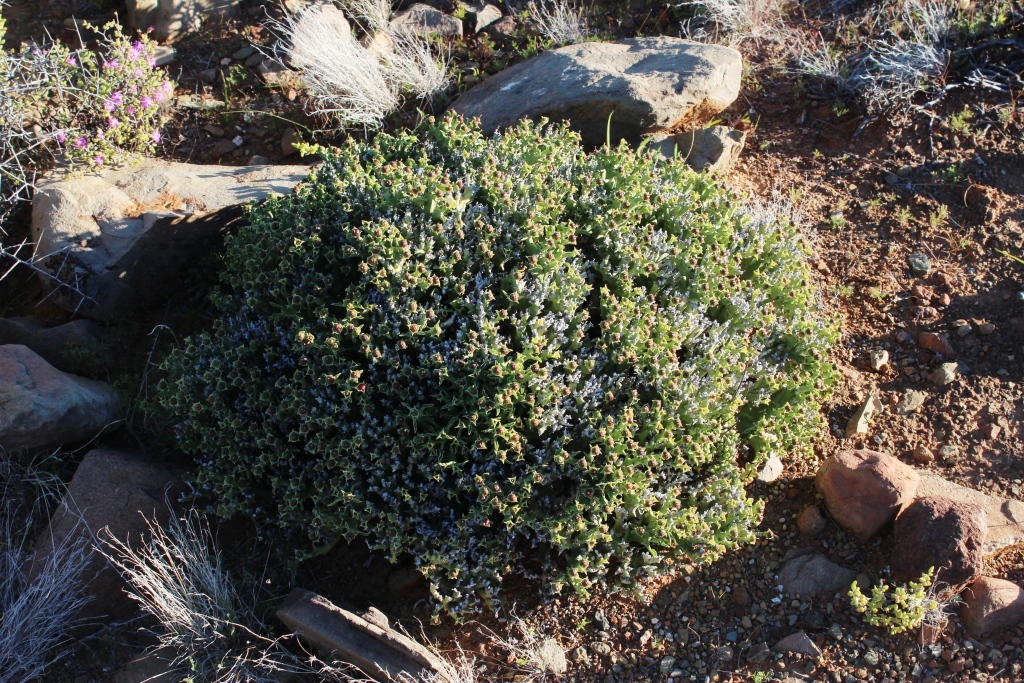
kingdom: Plantae
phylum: Tracheophyta
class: Magnoliopsida
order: Malpighiales
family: Euphorbiaceae
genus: Euphorbia
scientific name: Euphorbia hamata
